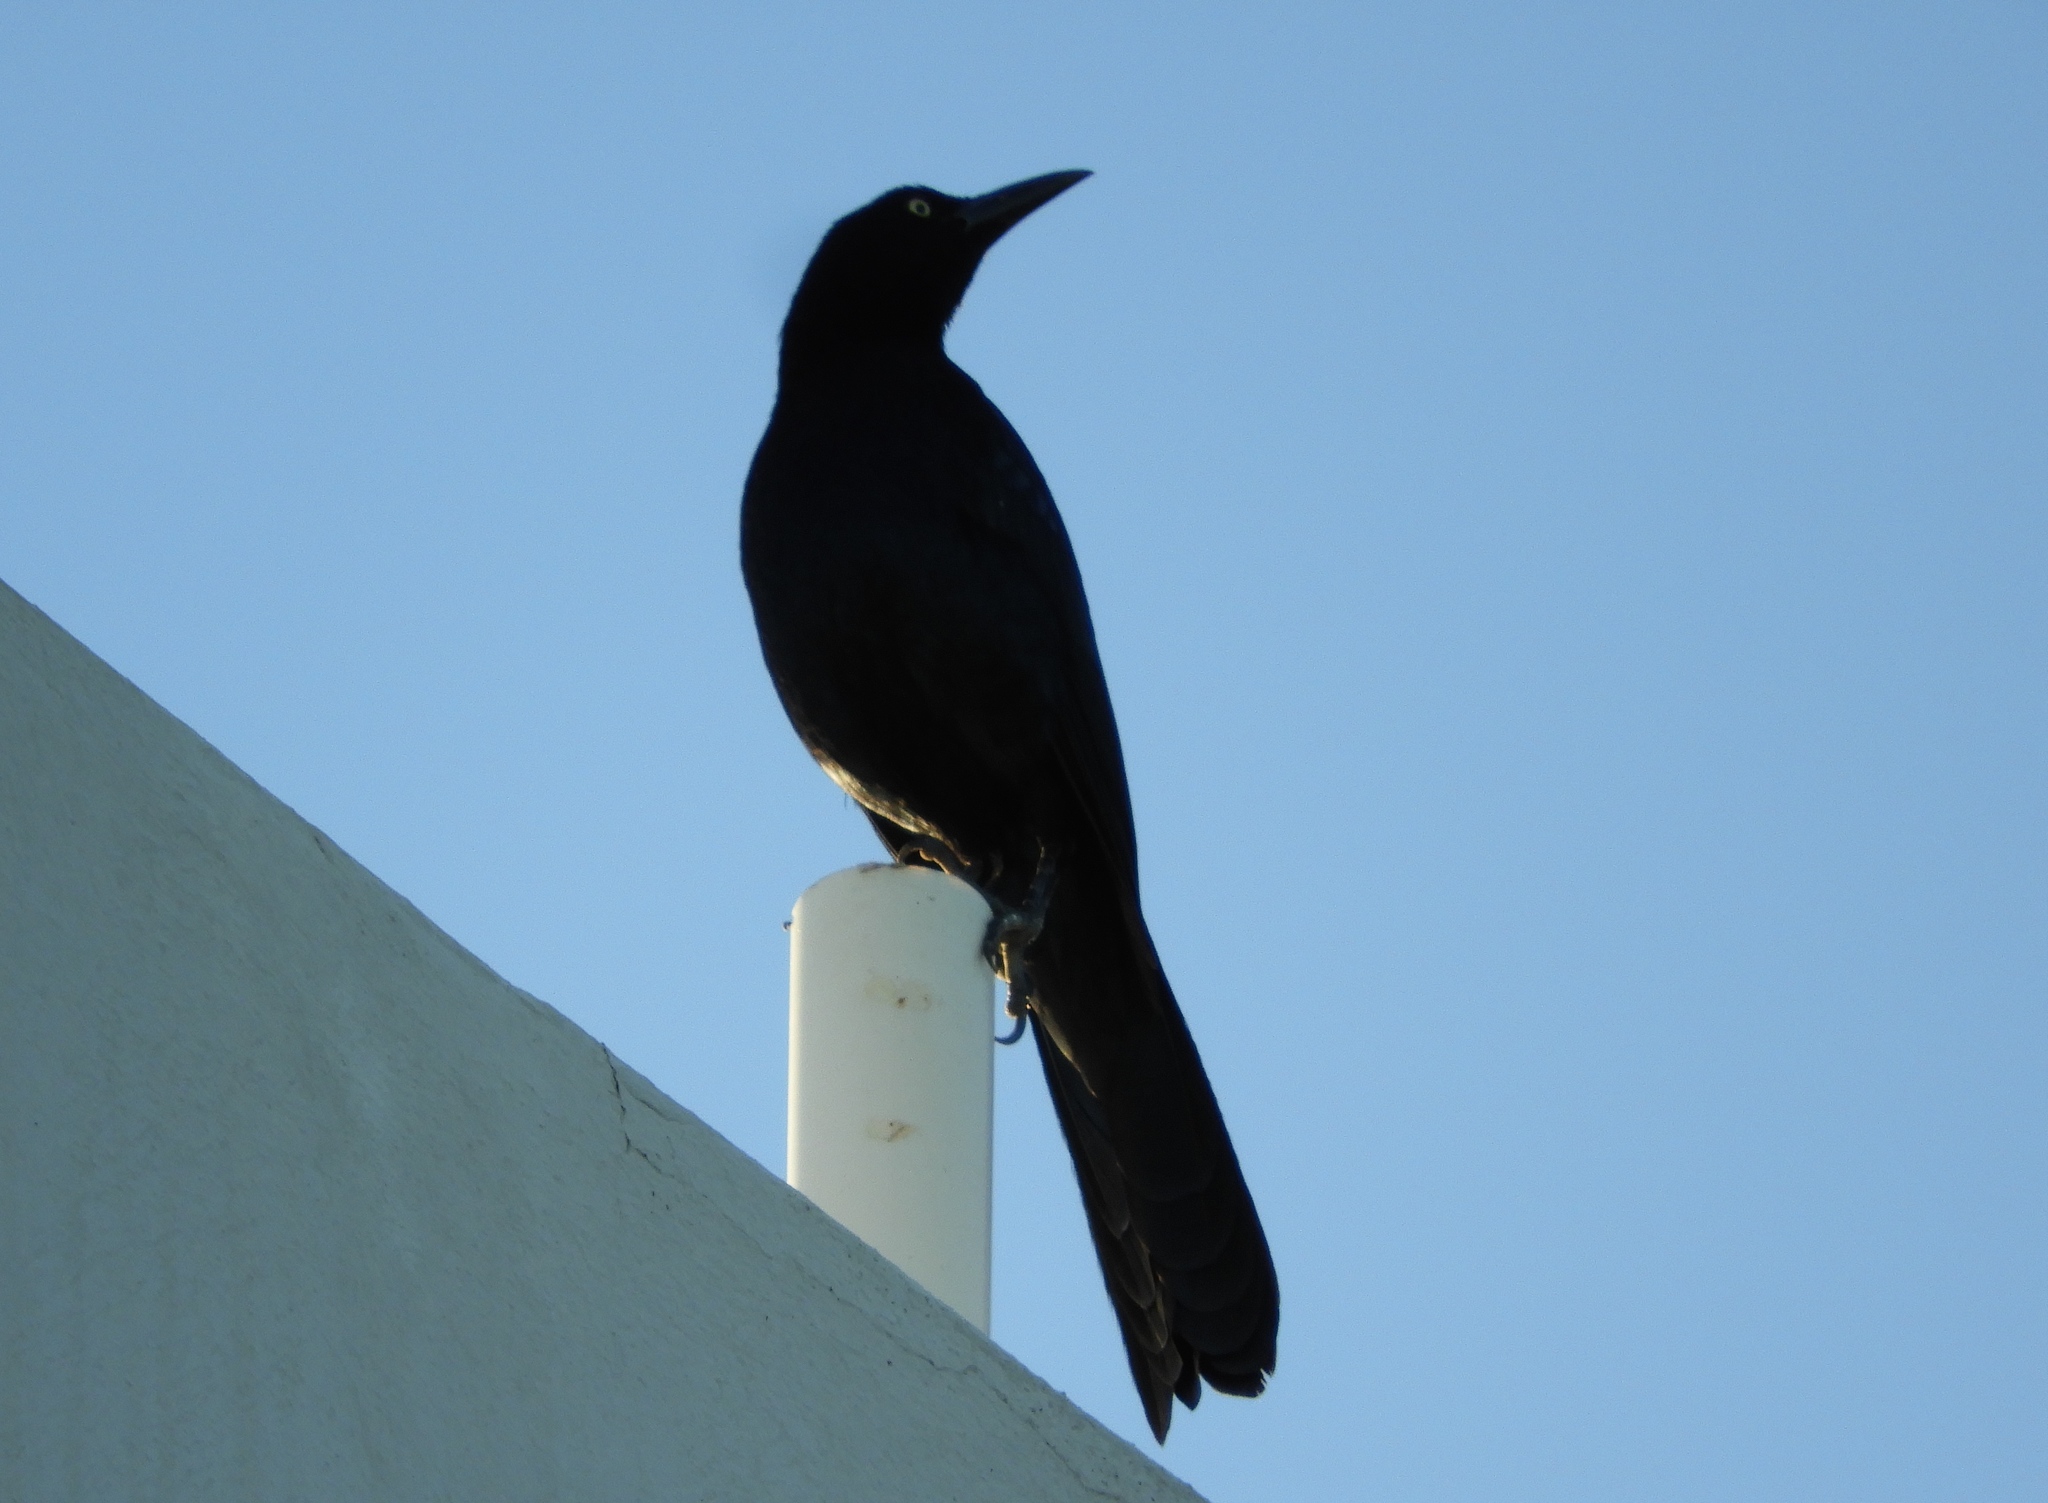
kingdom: Animalia
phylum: Chordata
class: Aves
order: Passeriformes
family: Icteridae
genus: Quiscalus
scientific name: Quiscalus mexicanus
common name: Great-tailed grackle
